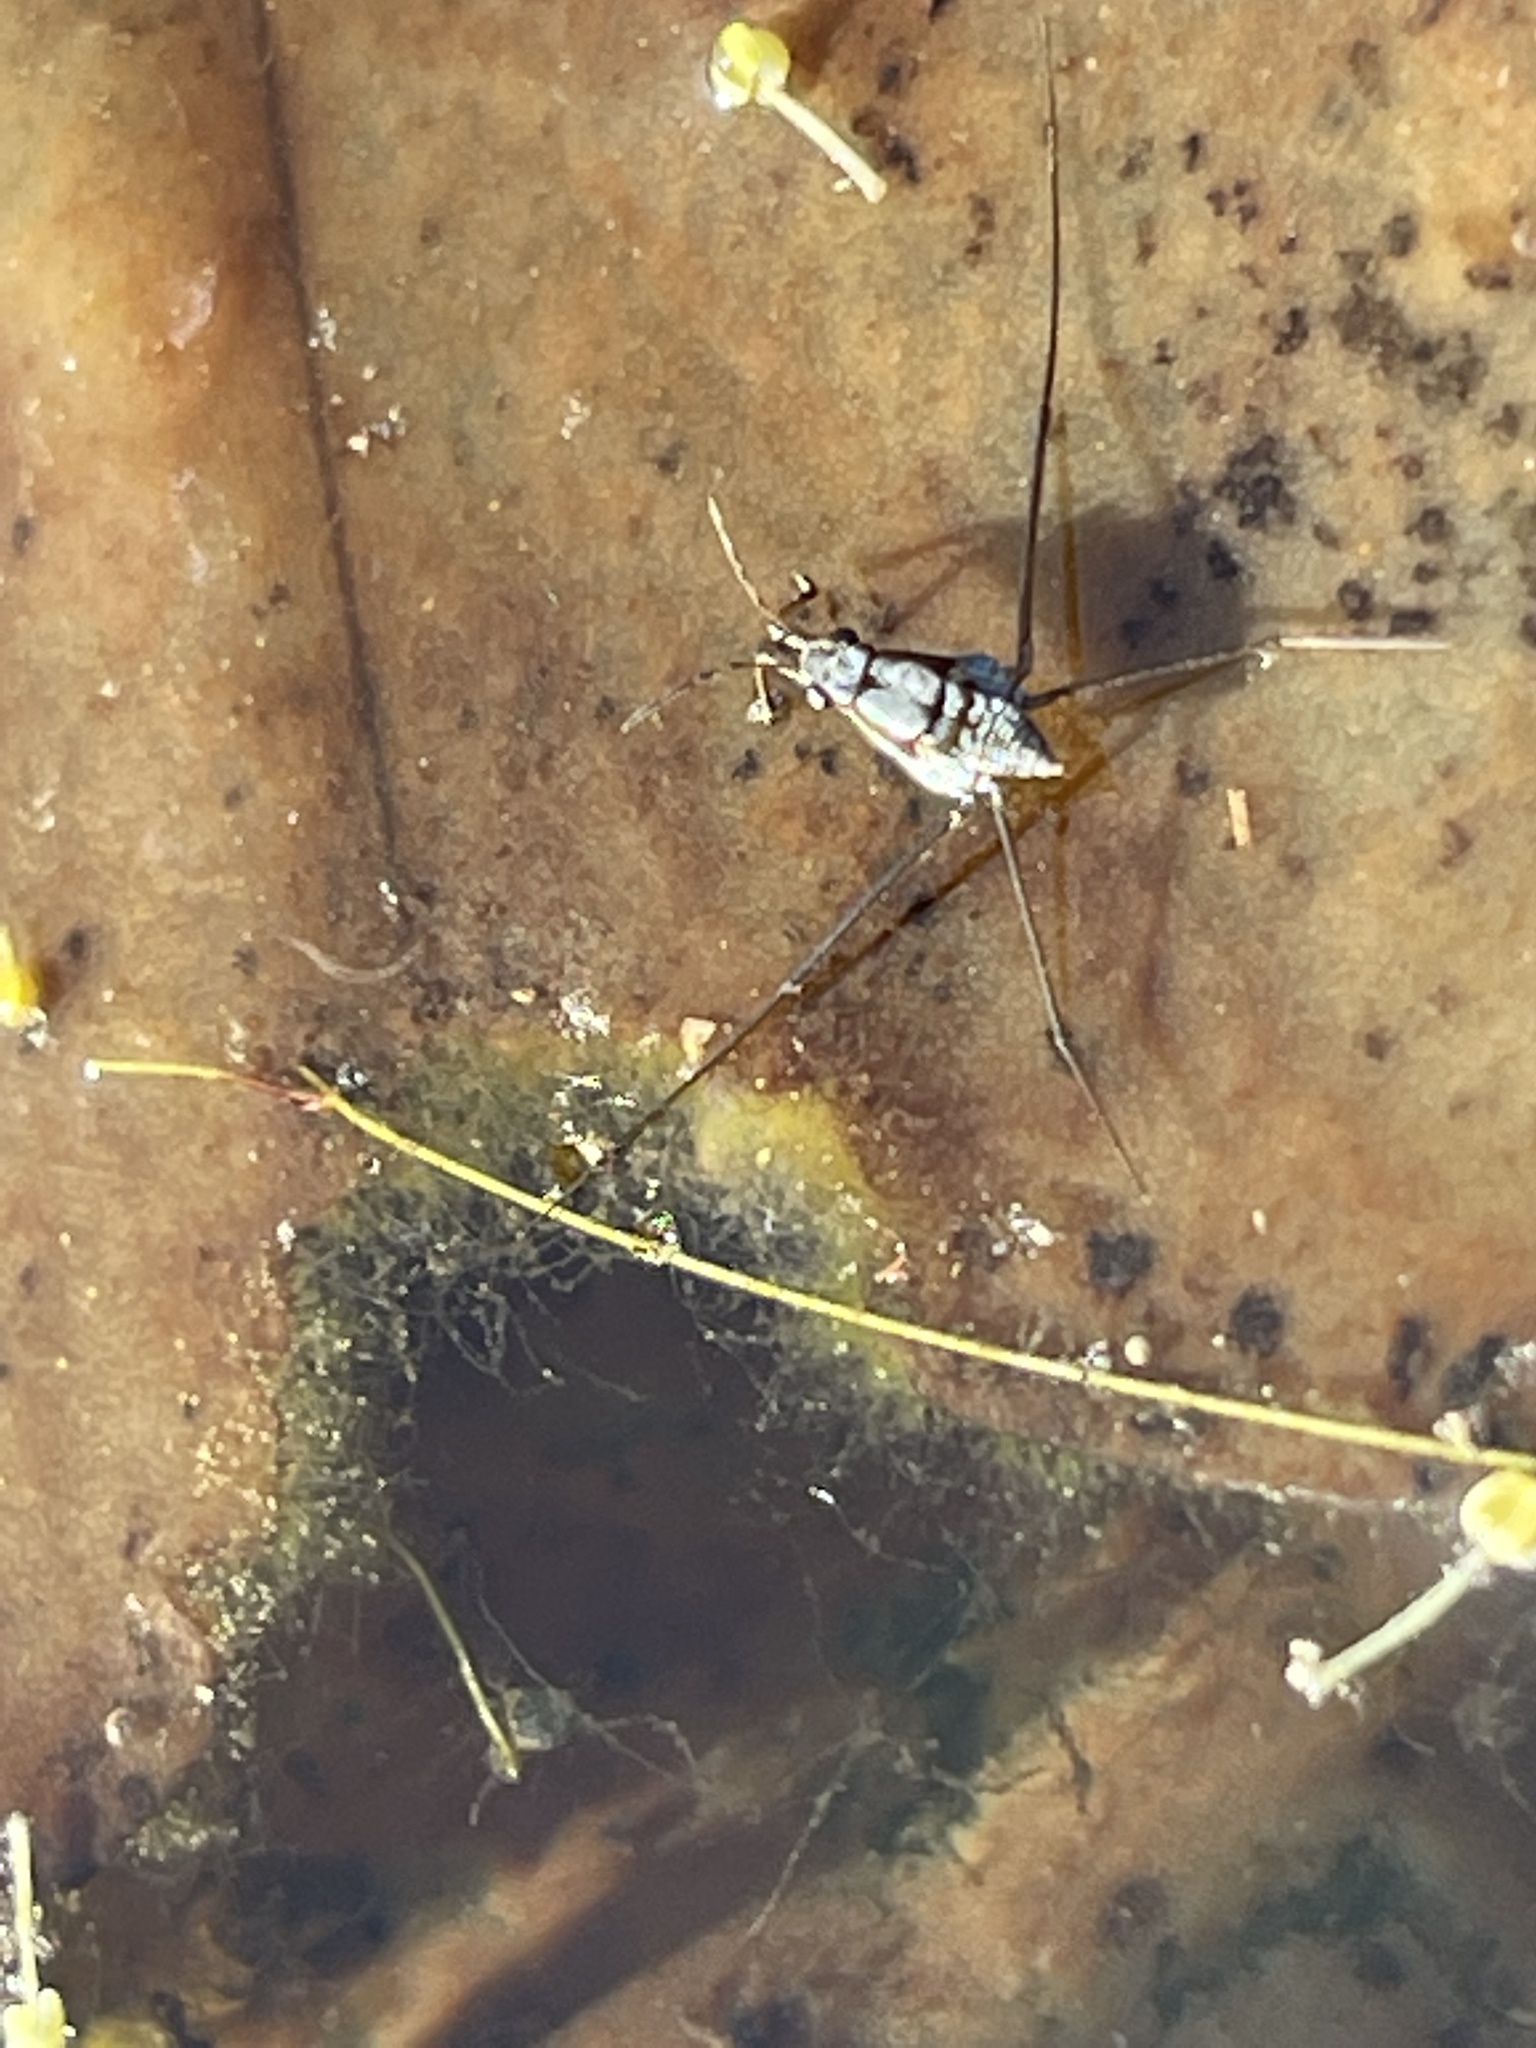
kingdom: Animalia
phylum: Arthropoda
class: Insecta
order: Hemiptera
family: Gerridae
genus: Neogerris
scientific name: Neogerris hesione
